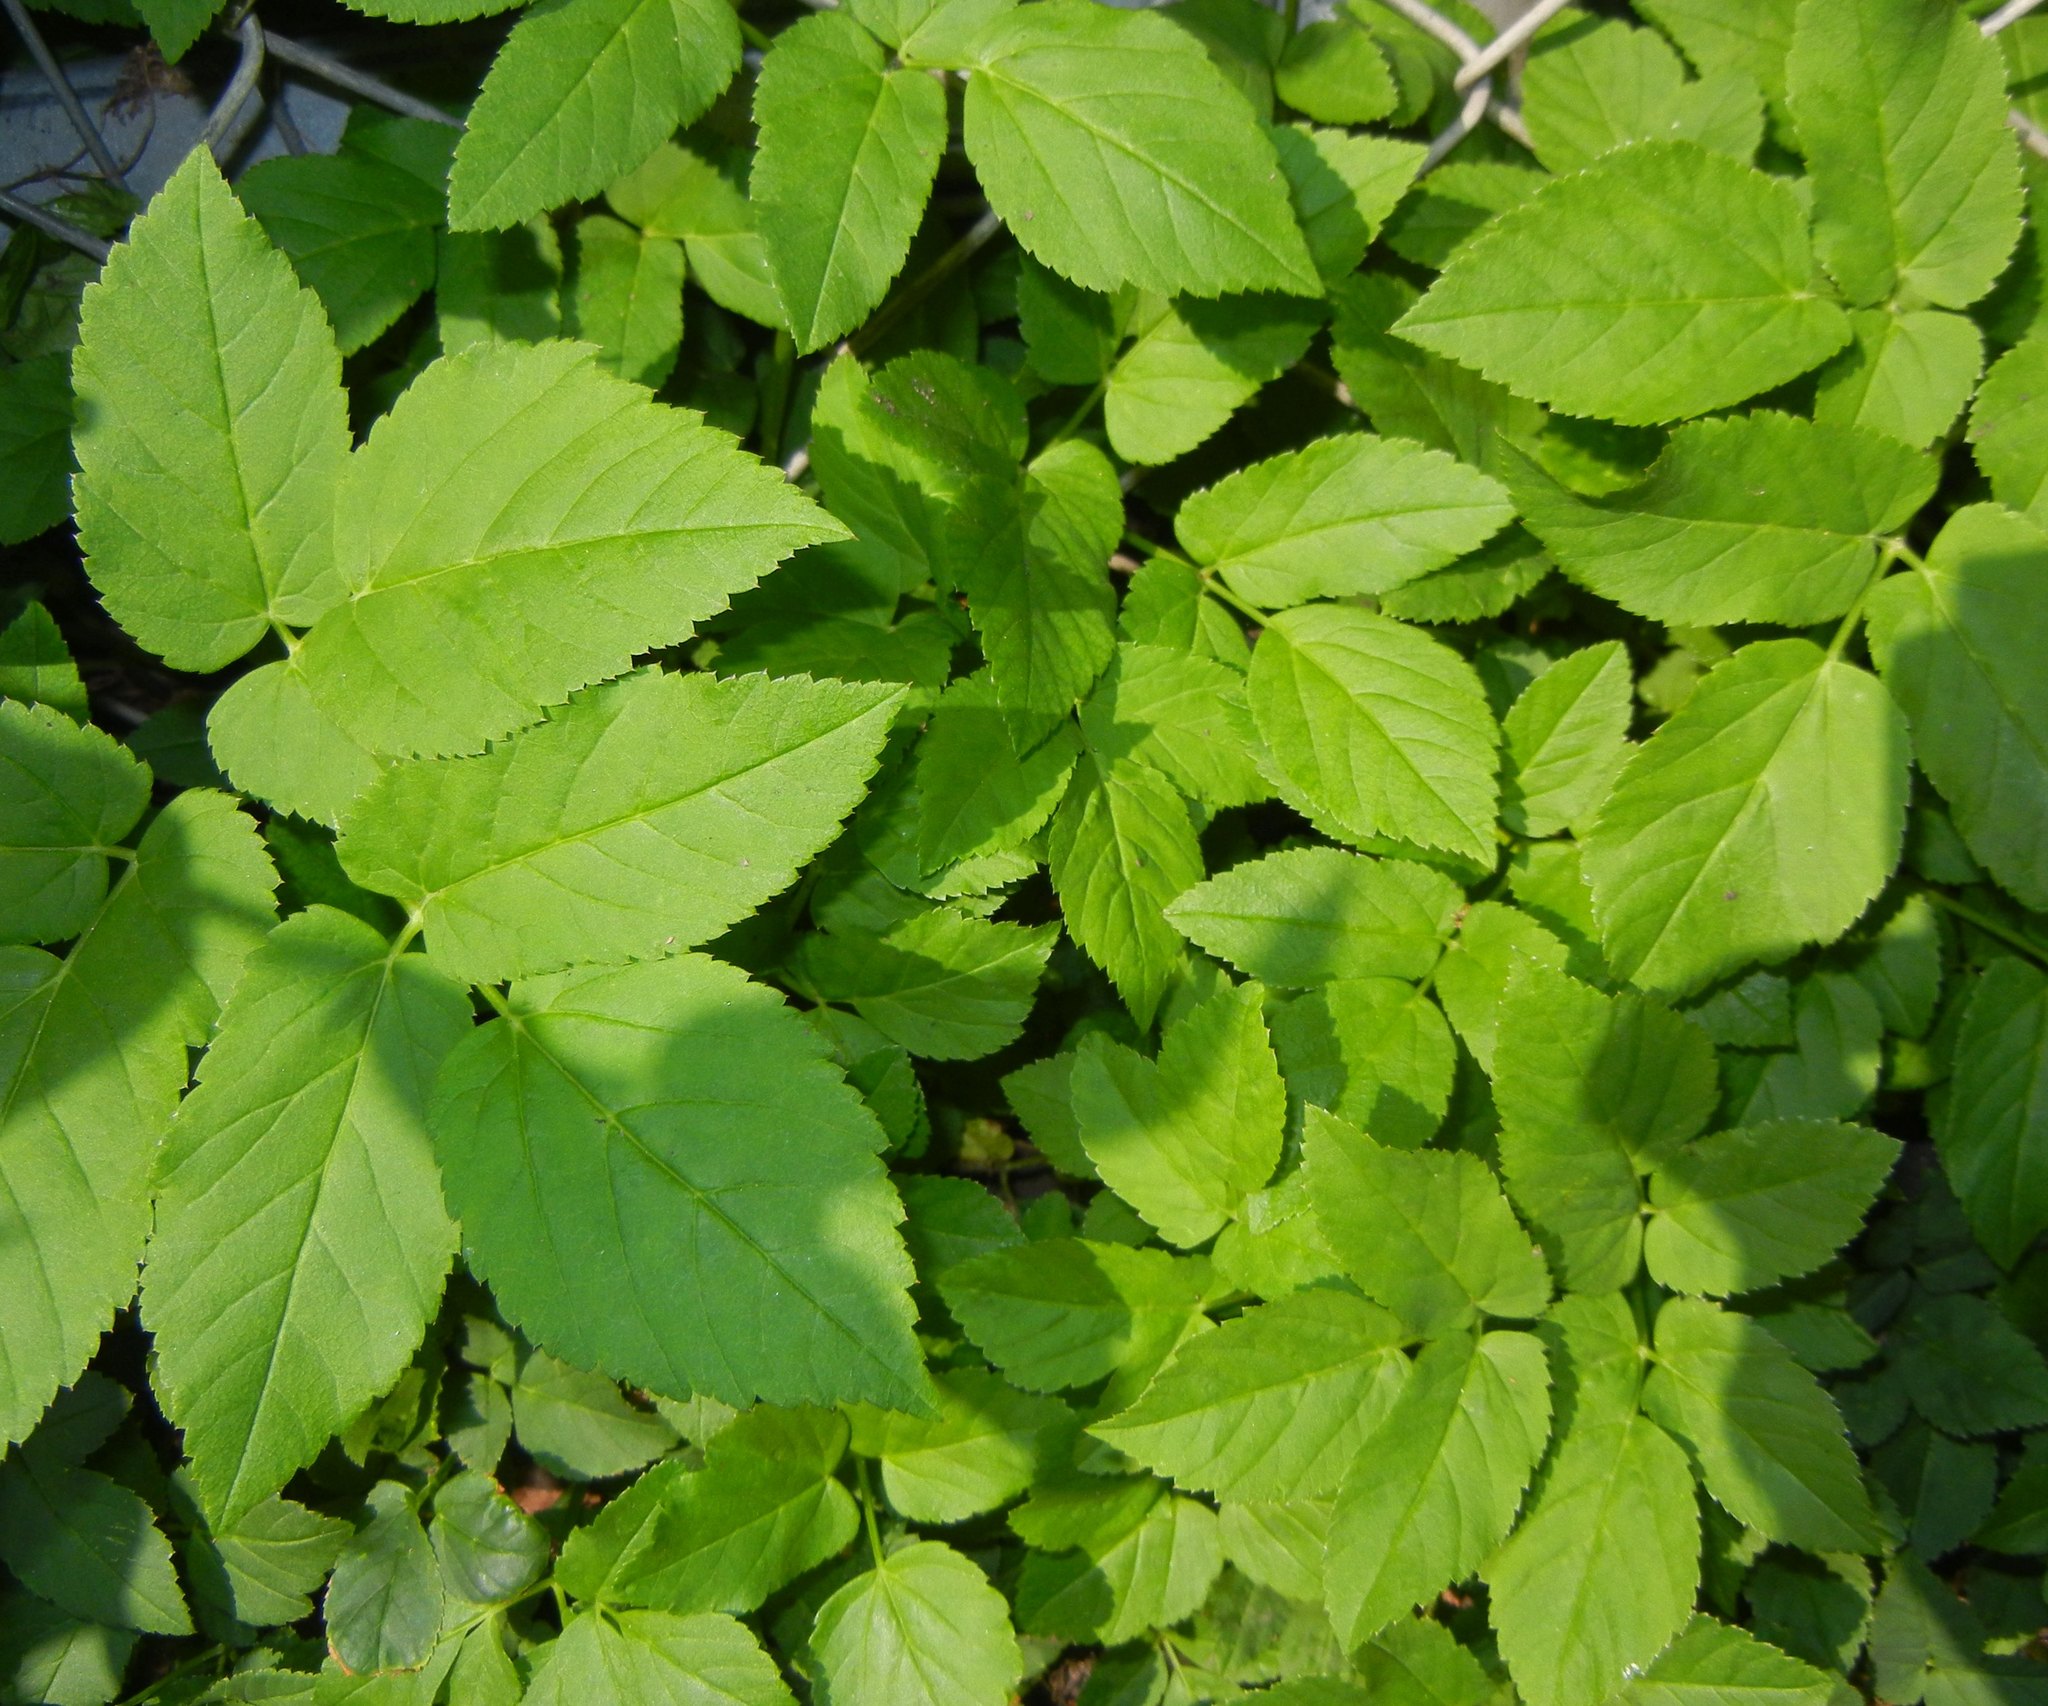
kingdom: Plantae
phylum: Tracheophyta
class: Magnoliopsida
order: Apiales
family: Apiaceae
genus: Aegopodium
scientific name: Aegopodium podagraria
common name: Ground-elder
